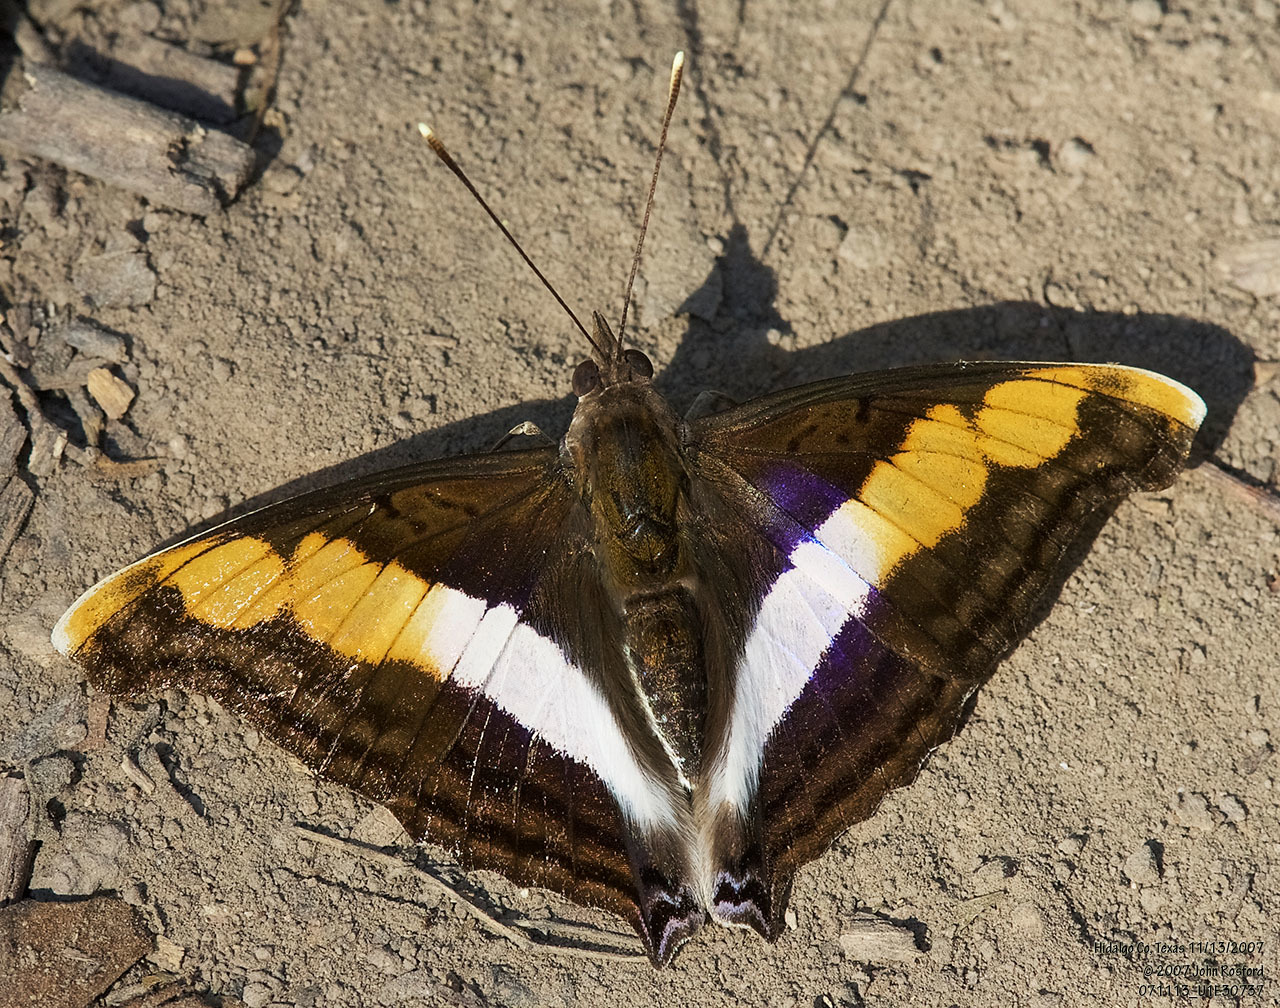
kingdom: Animalia
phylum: Arthropoda
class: Insecta
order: Lepidoptera
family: Nymphalidae
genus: Doxocopa
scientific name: Doxocopa laure
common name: Silver emperor
